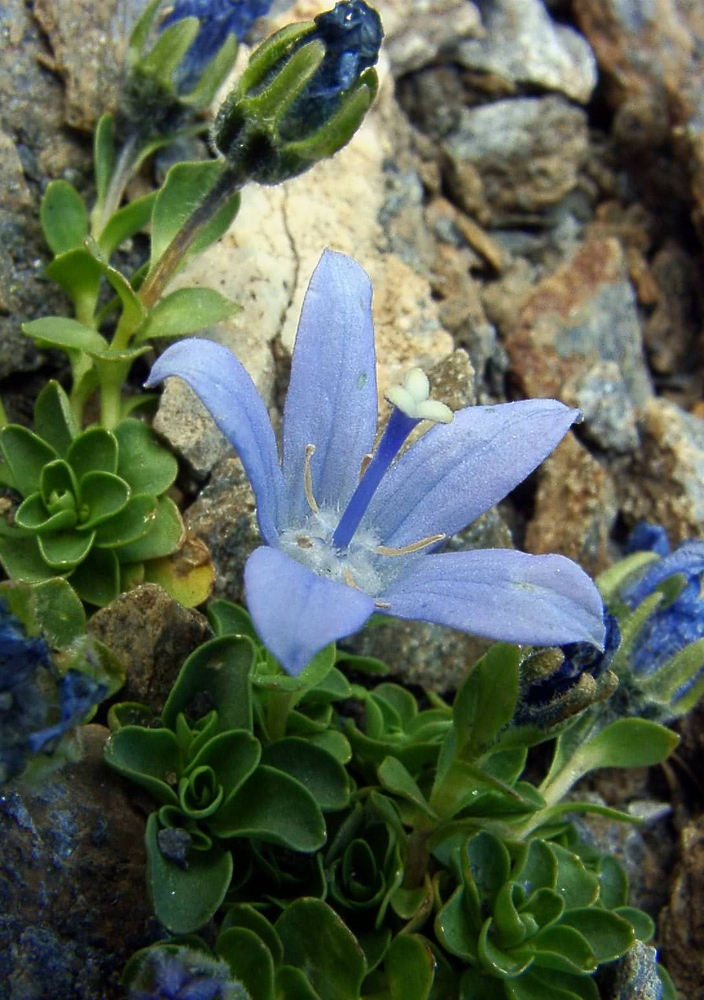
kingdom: Plantae
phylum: Tracheophyta
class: Magnoliopsida
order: Asterales
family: Campanulaceae
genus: Campanula
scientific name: Campanula cenisia
